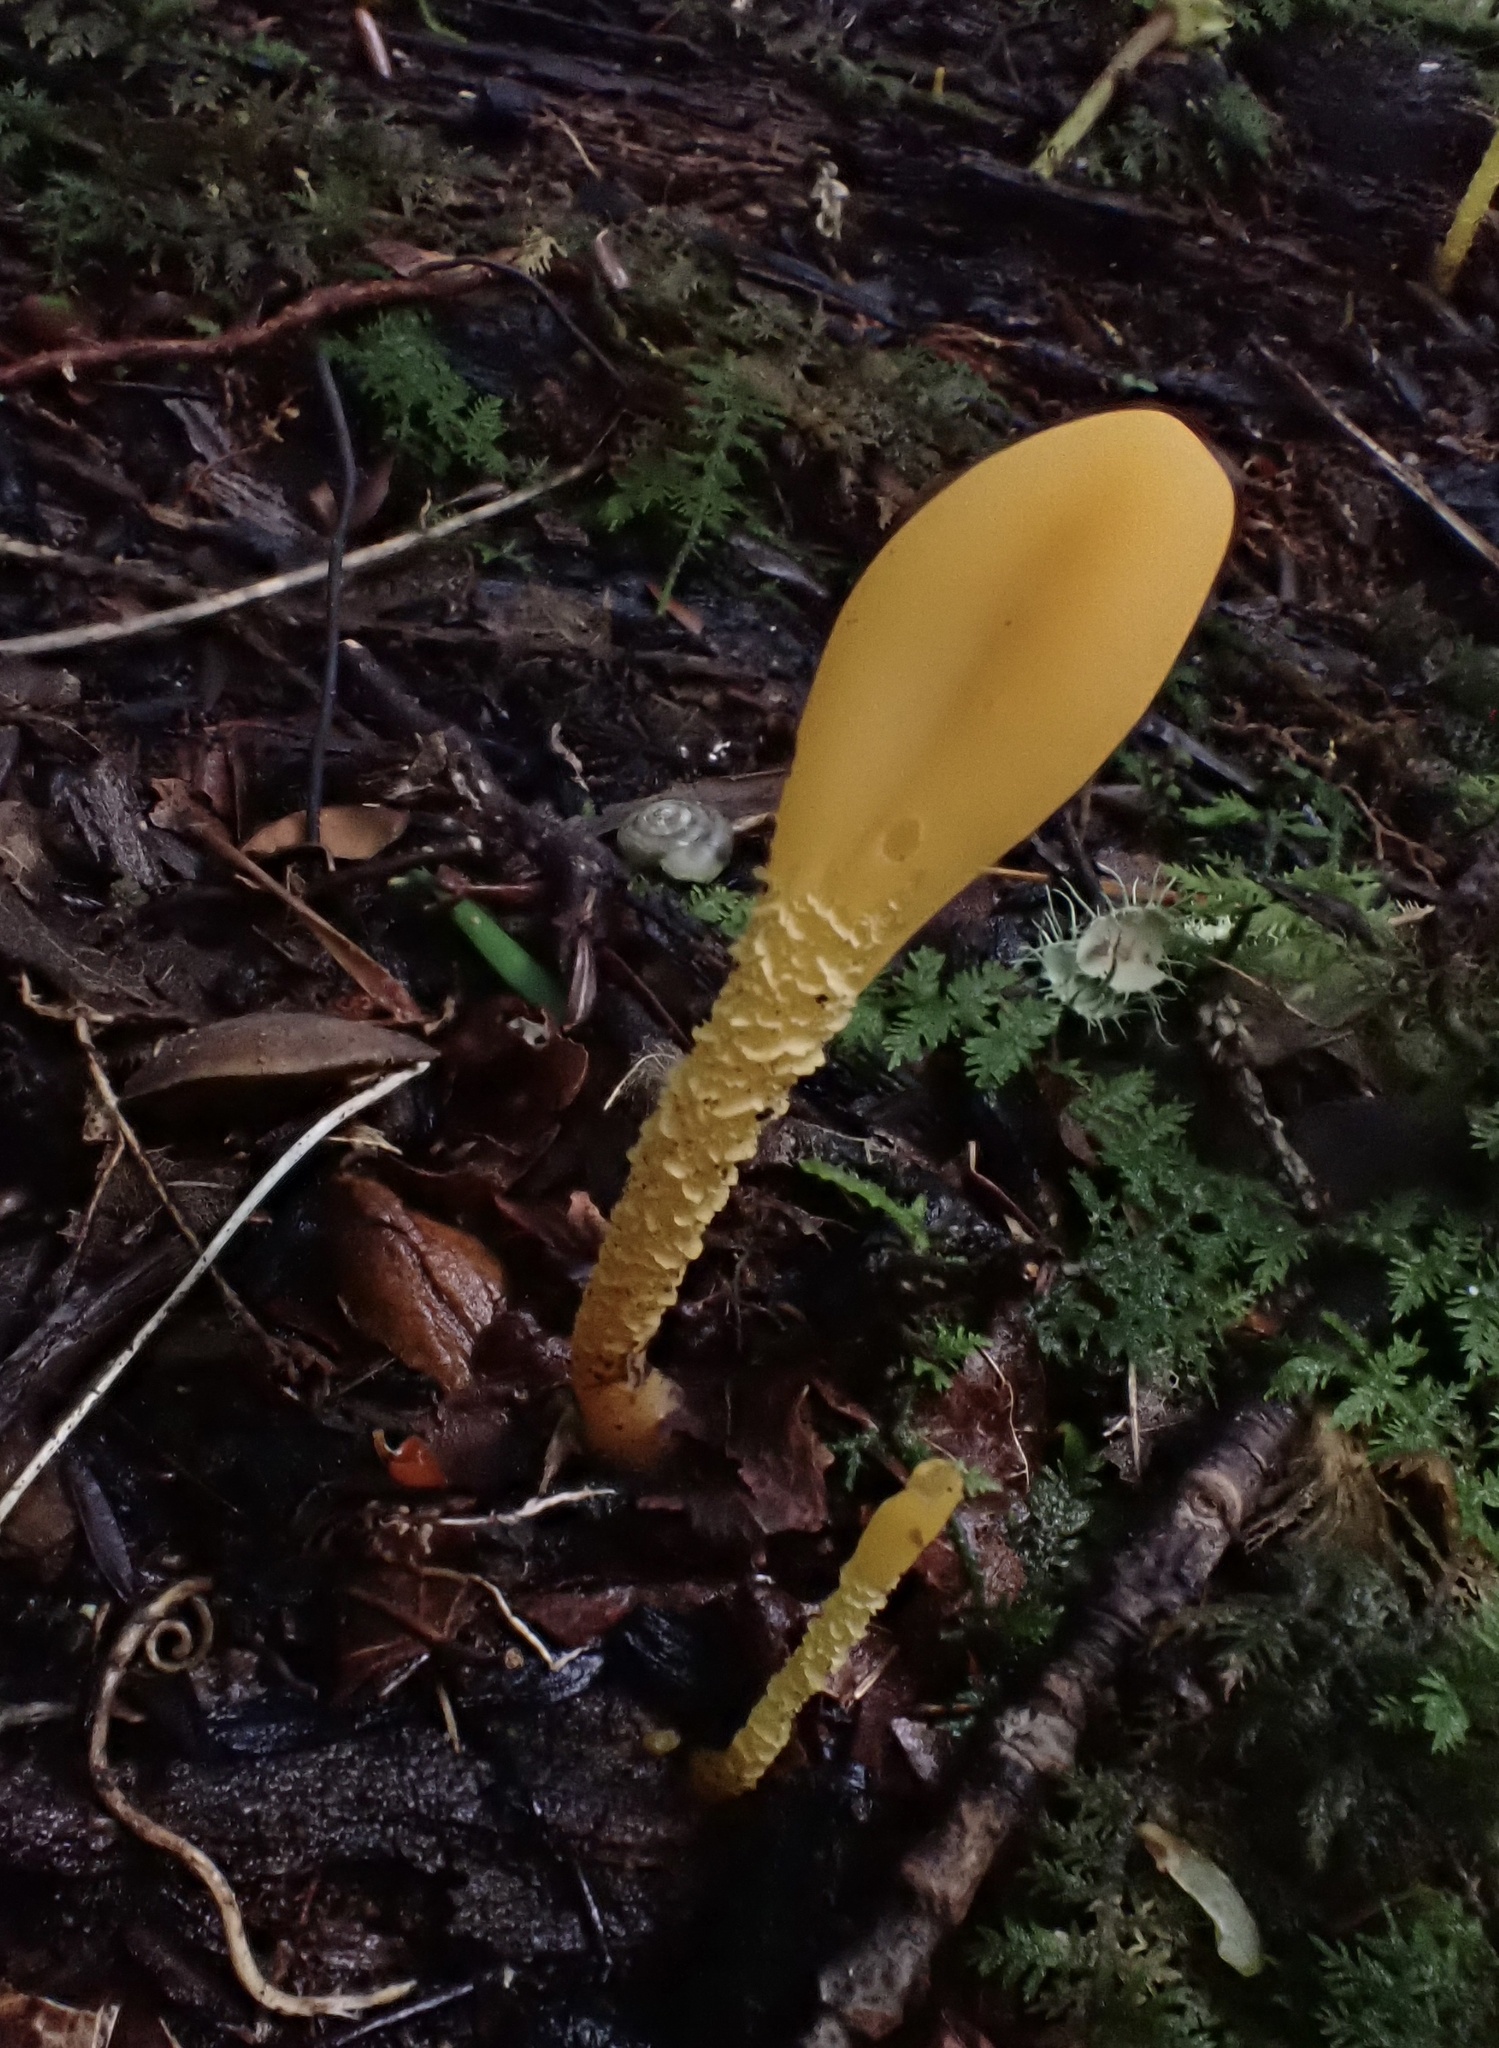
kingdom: Fungi
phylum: Ascomycota
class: Leotiomycetes
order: Leotiales
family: Leotiaceae
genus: Microglossum
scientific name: Microglossum rufum
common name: Orange earthtongue
